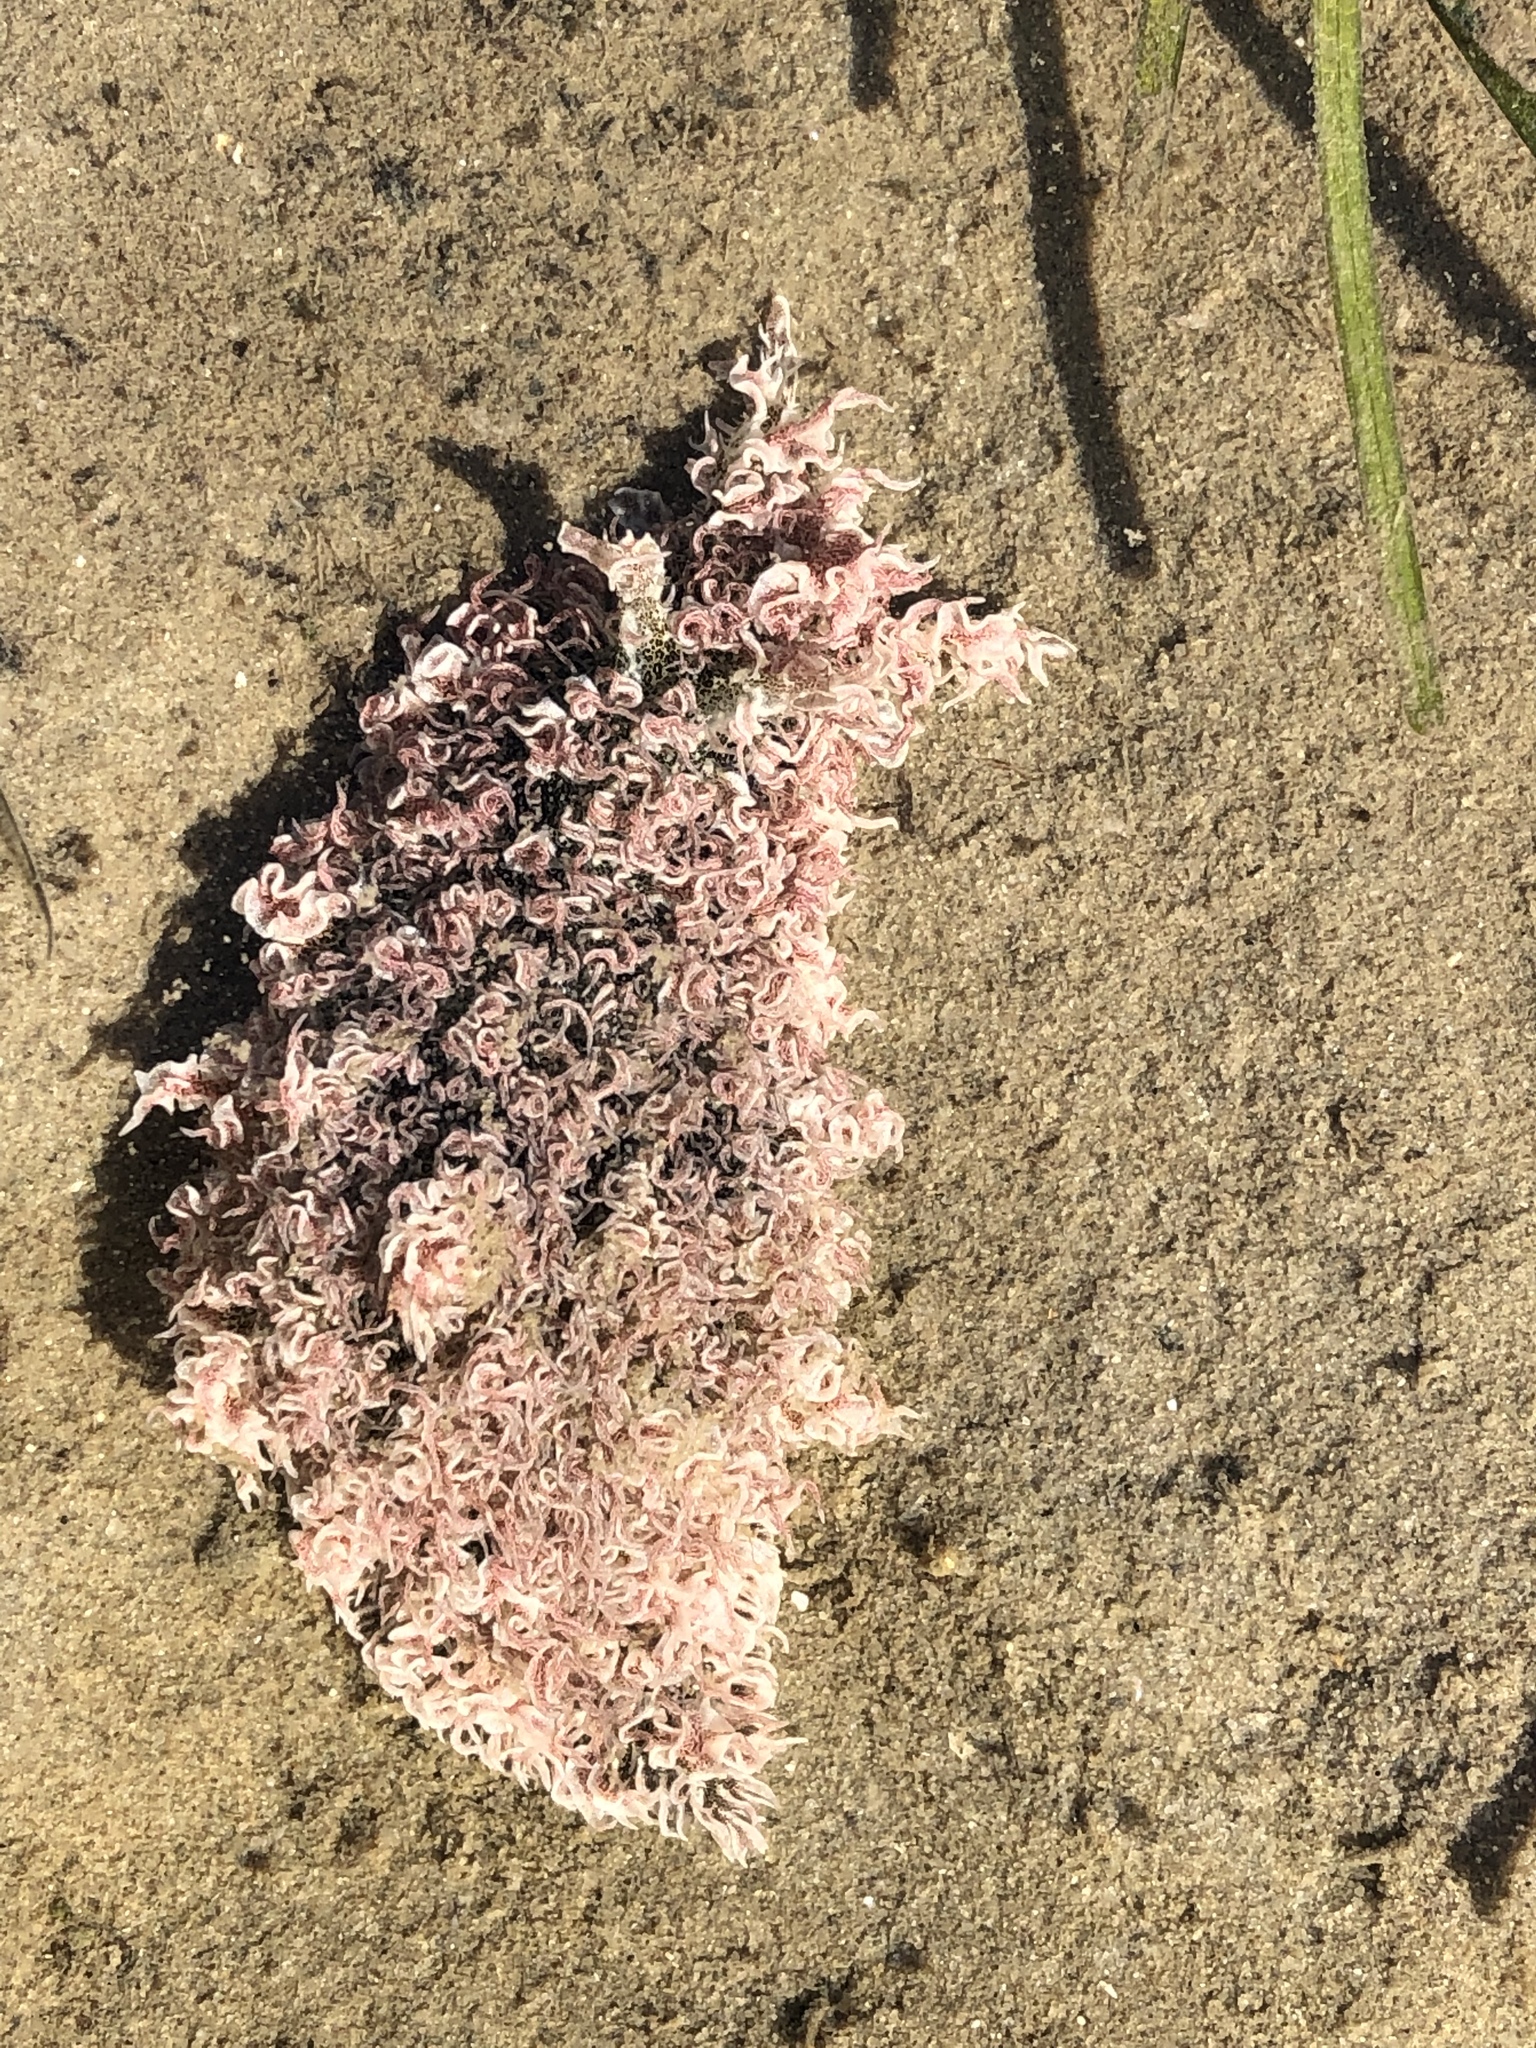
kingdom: Animalia
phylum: Mollusca
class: Gastropoda
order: Aplysiida
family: Aplysiidae
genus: Bursatella
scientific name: Bursatella leachii
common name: Shaggy sea hare
